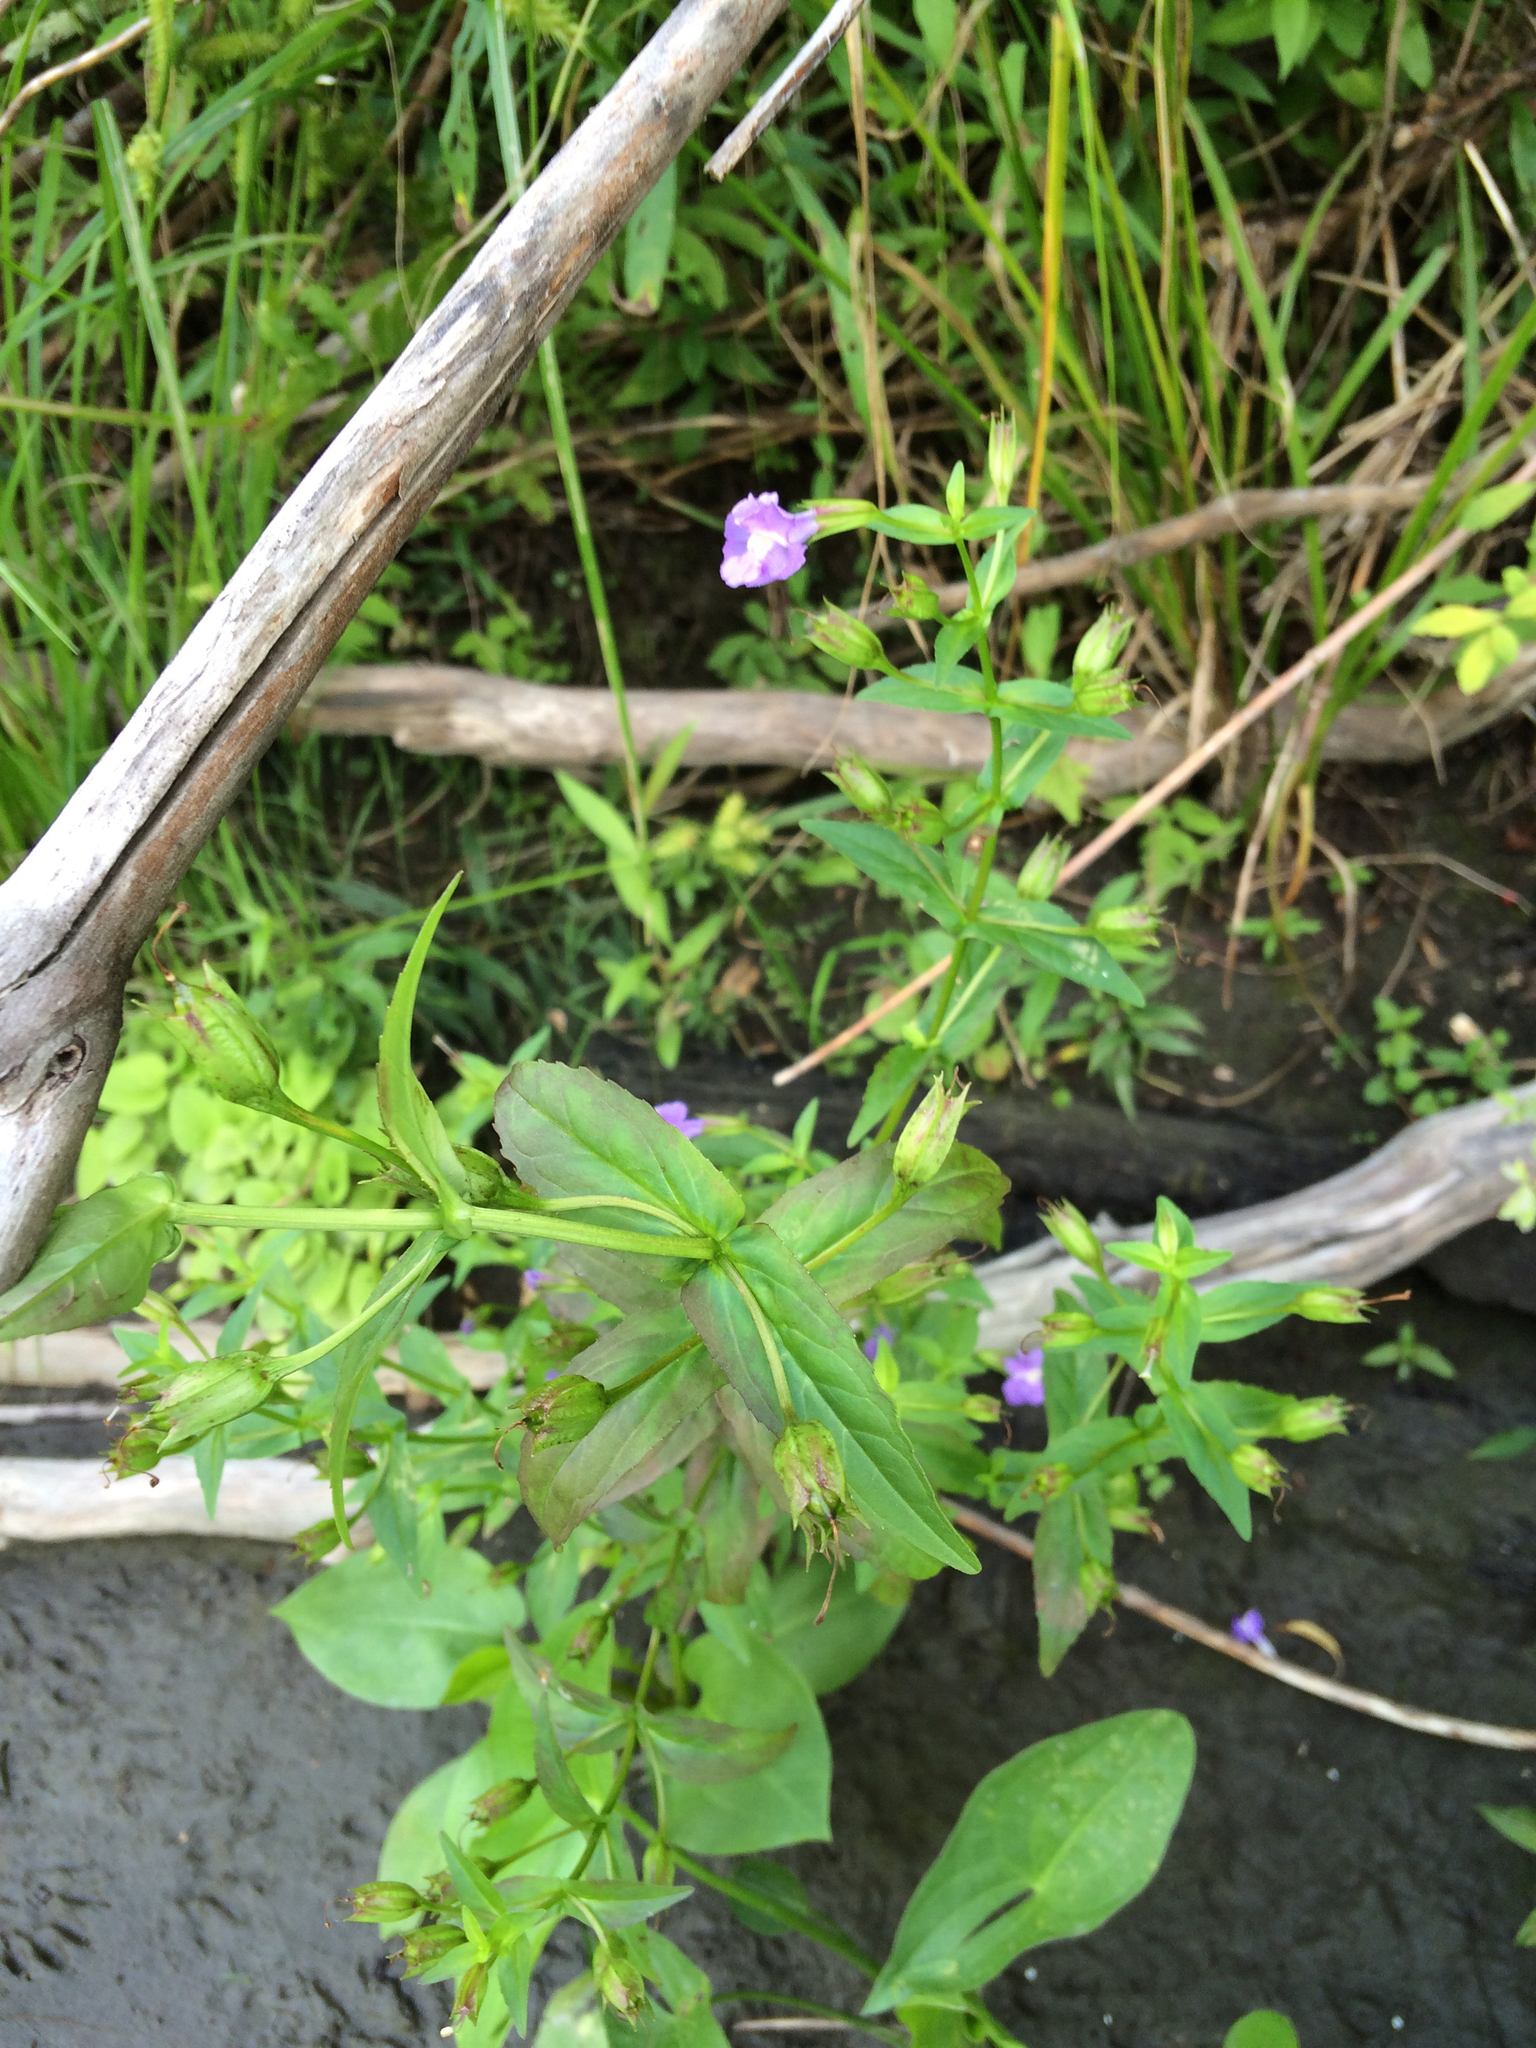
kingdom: Plantae
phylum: Tracheophyta
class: Magnoliopsida
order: Lamiales
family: Phrymaceae
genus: Mimulus
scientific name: Mimulus ringens
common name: Allegheny monkeyflower
